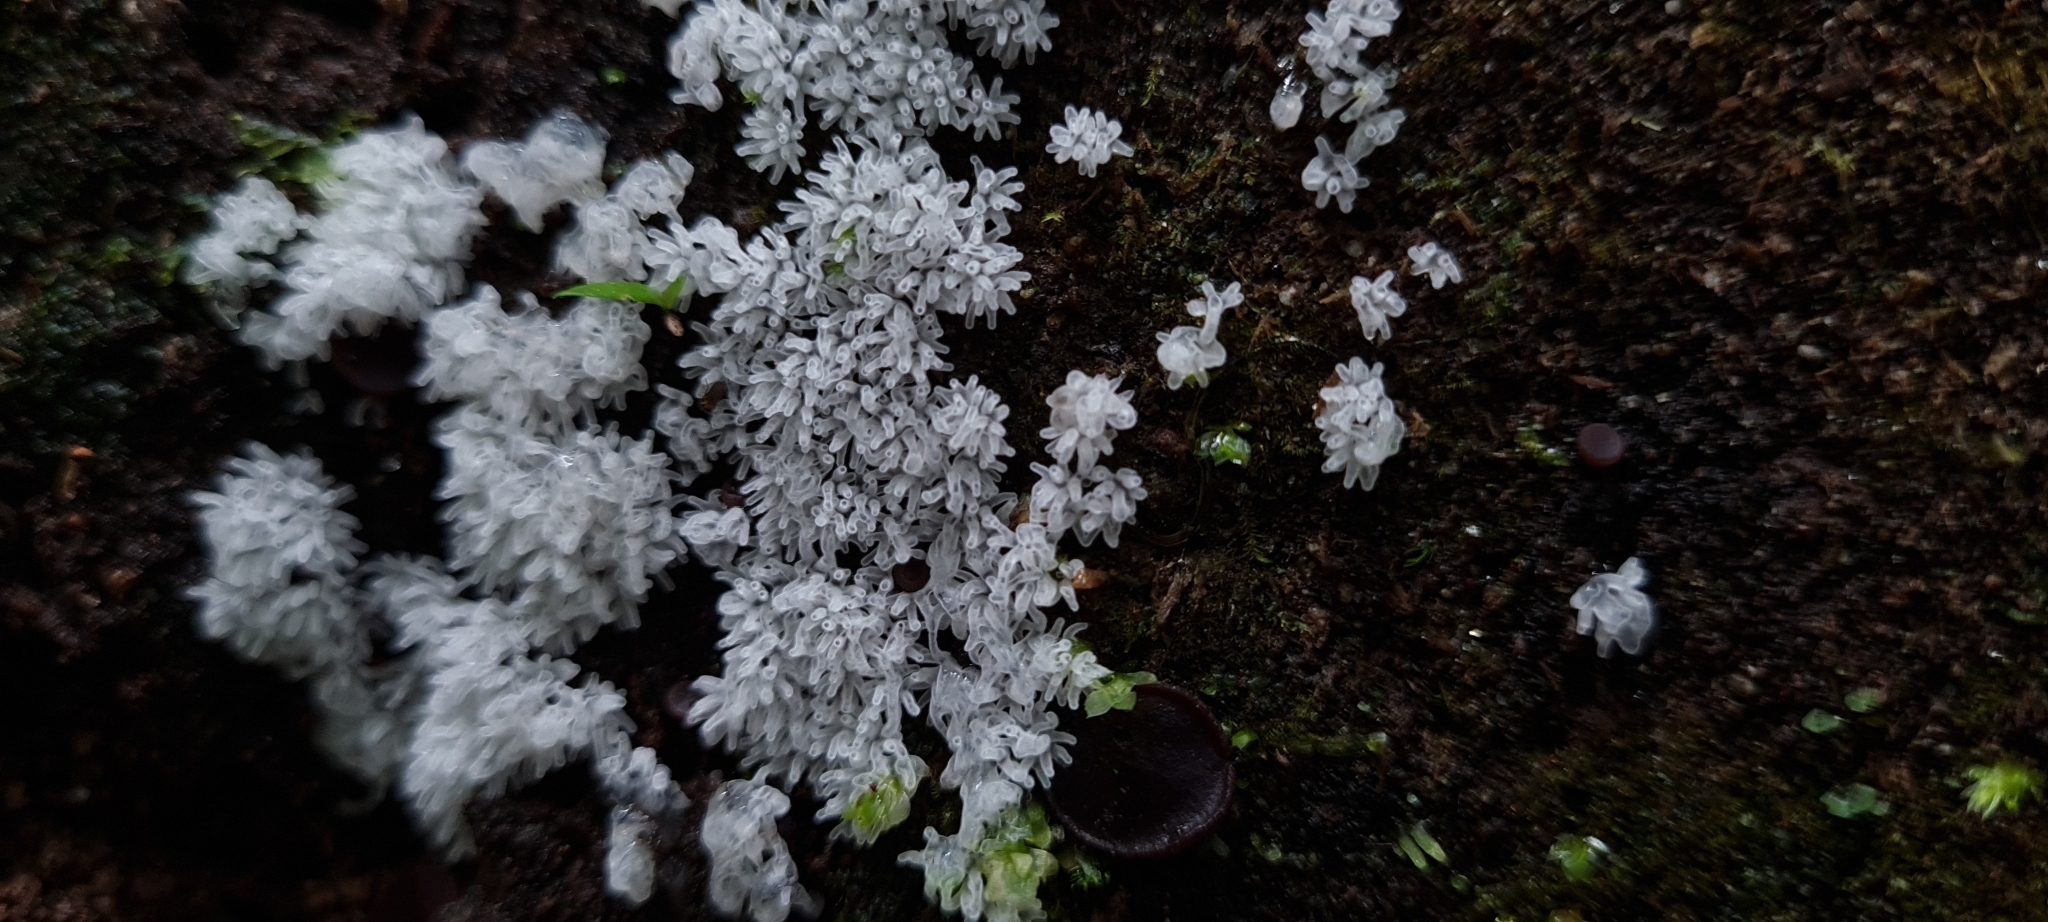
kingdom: Protozoa
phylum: Mycetozoa
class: Protosteliomycetes
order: Ceratiomyxales
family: Ceratiomyxaceae
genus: Ceratiomyxa
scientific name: Ceratiomyxa fruticulosa
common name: Honeycomb coral slime mold
